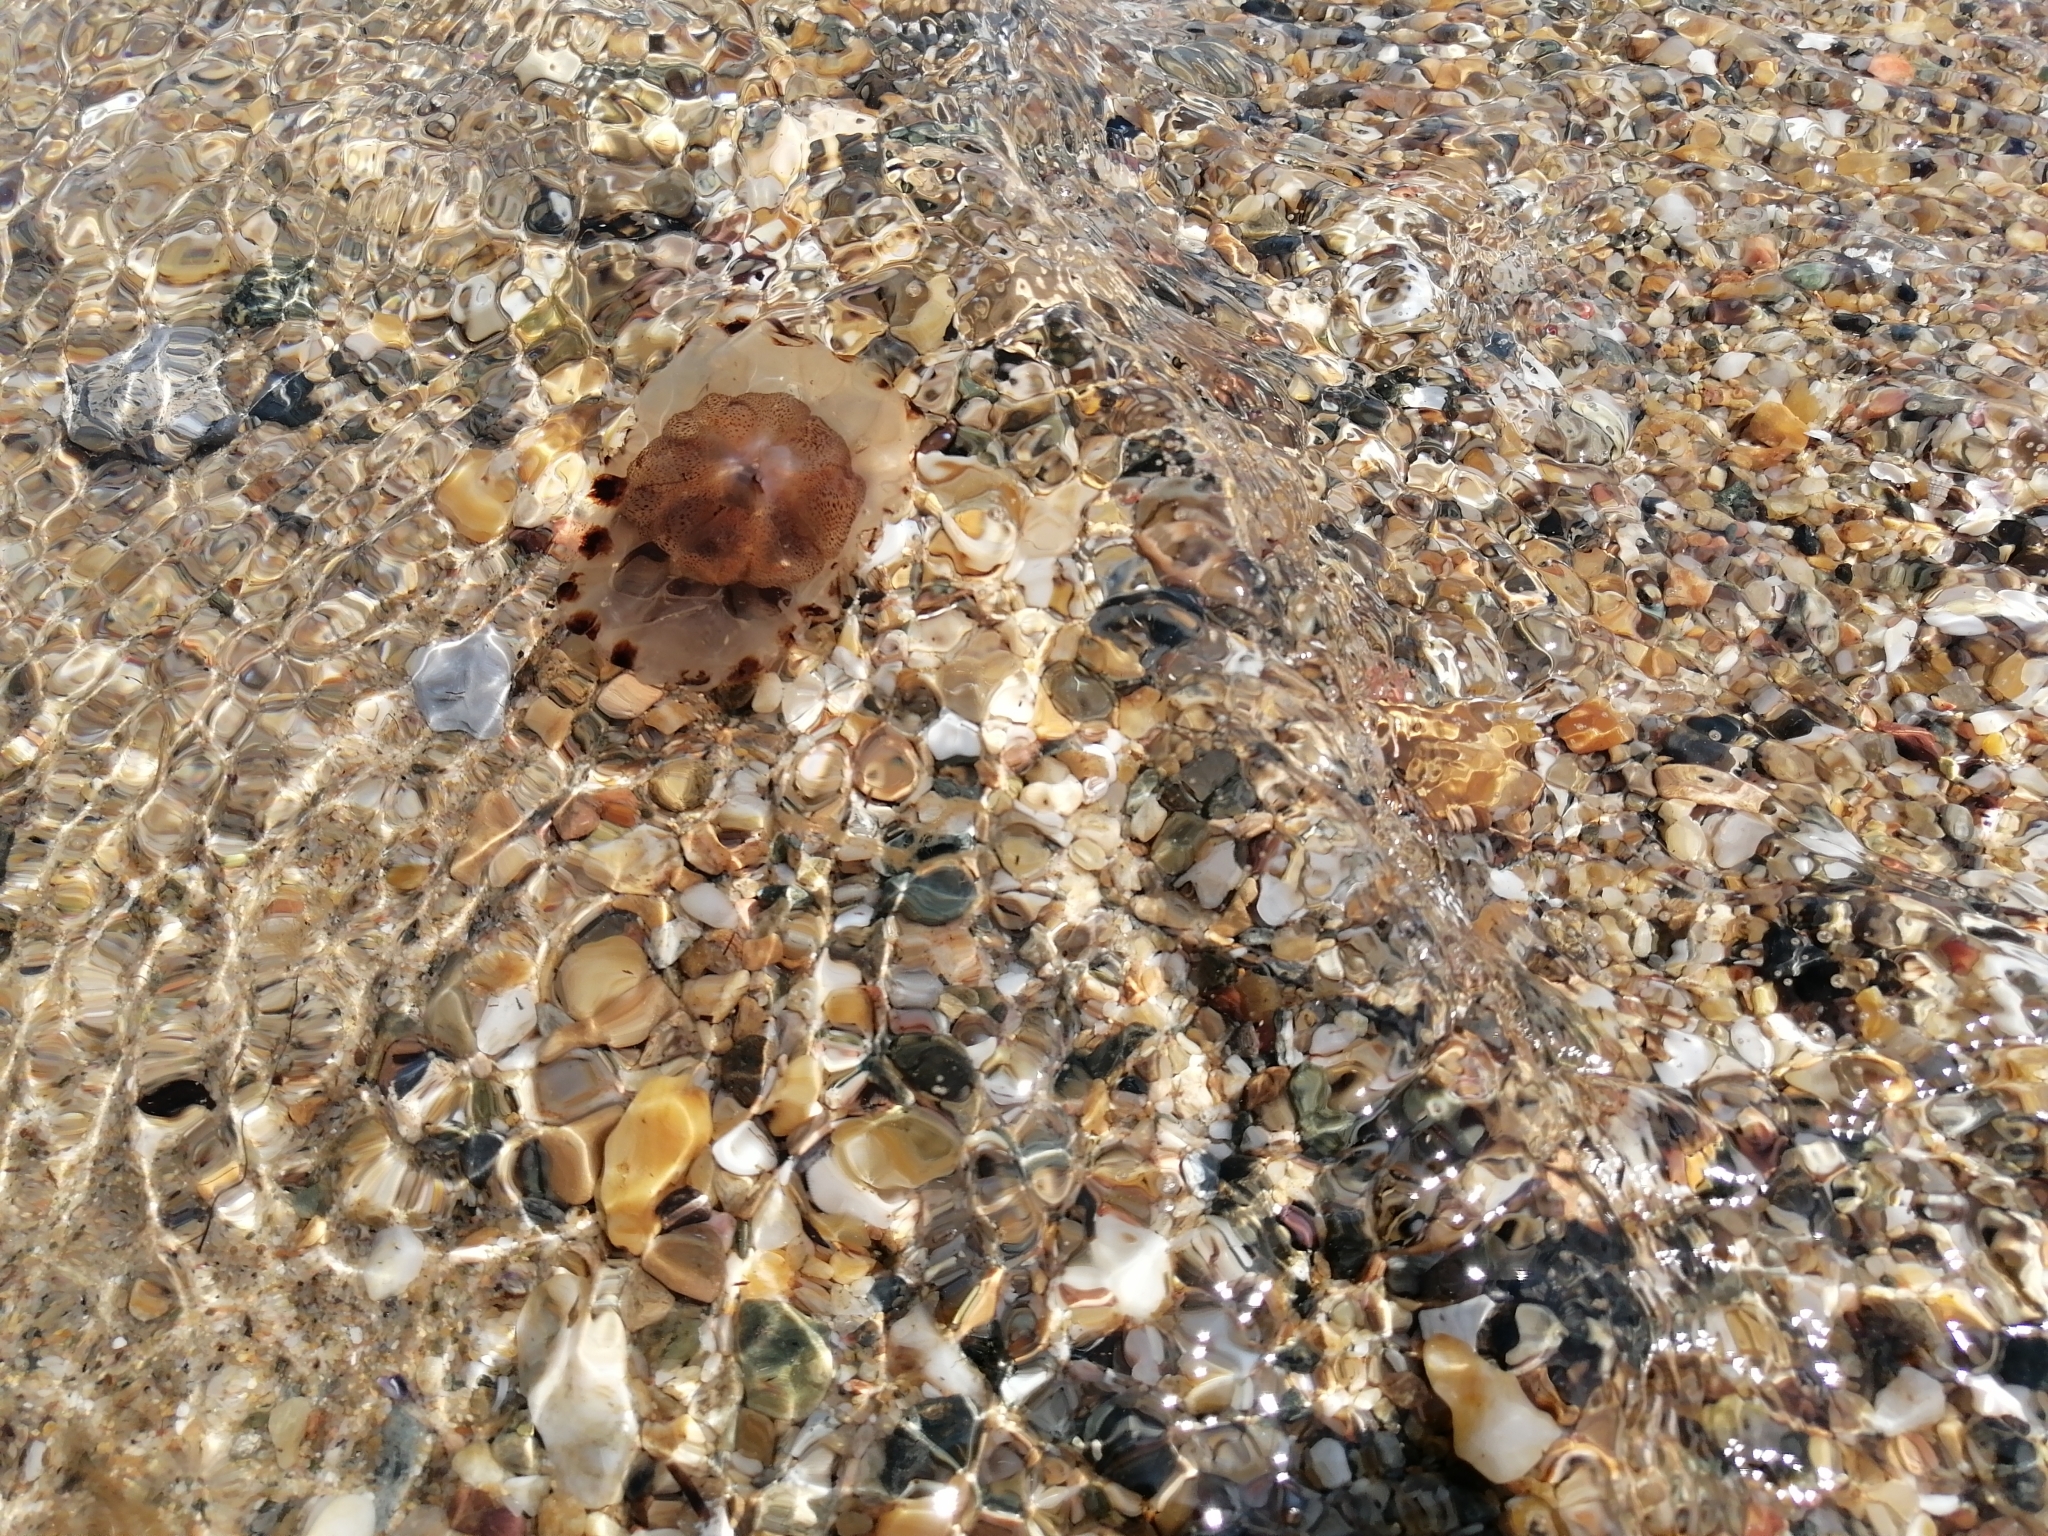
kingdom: Animalia
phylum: Cnidaria
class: Scyphozoa
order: Semaeostomeae
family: Pelagiidae
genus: Chrysaora
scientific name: Chrysaora hysoscella
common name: Compass jellyfish
